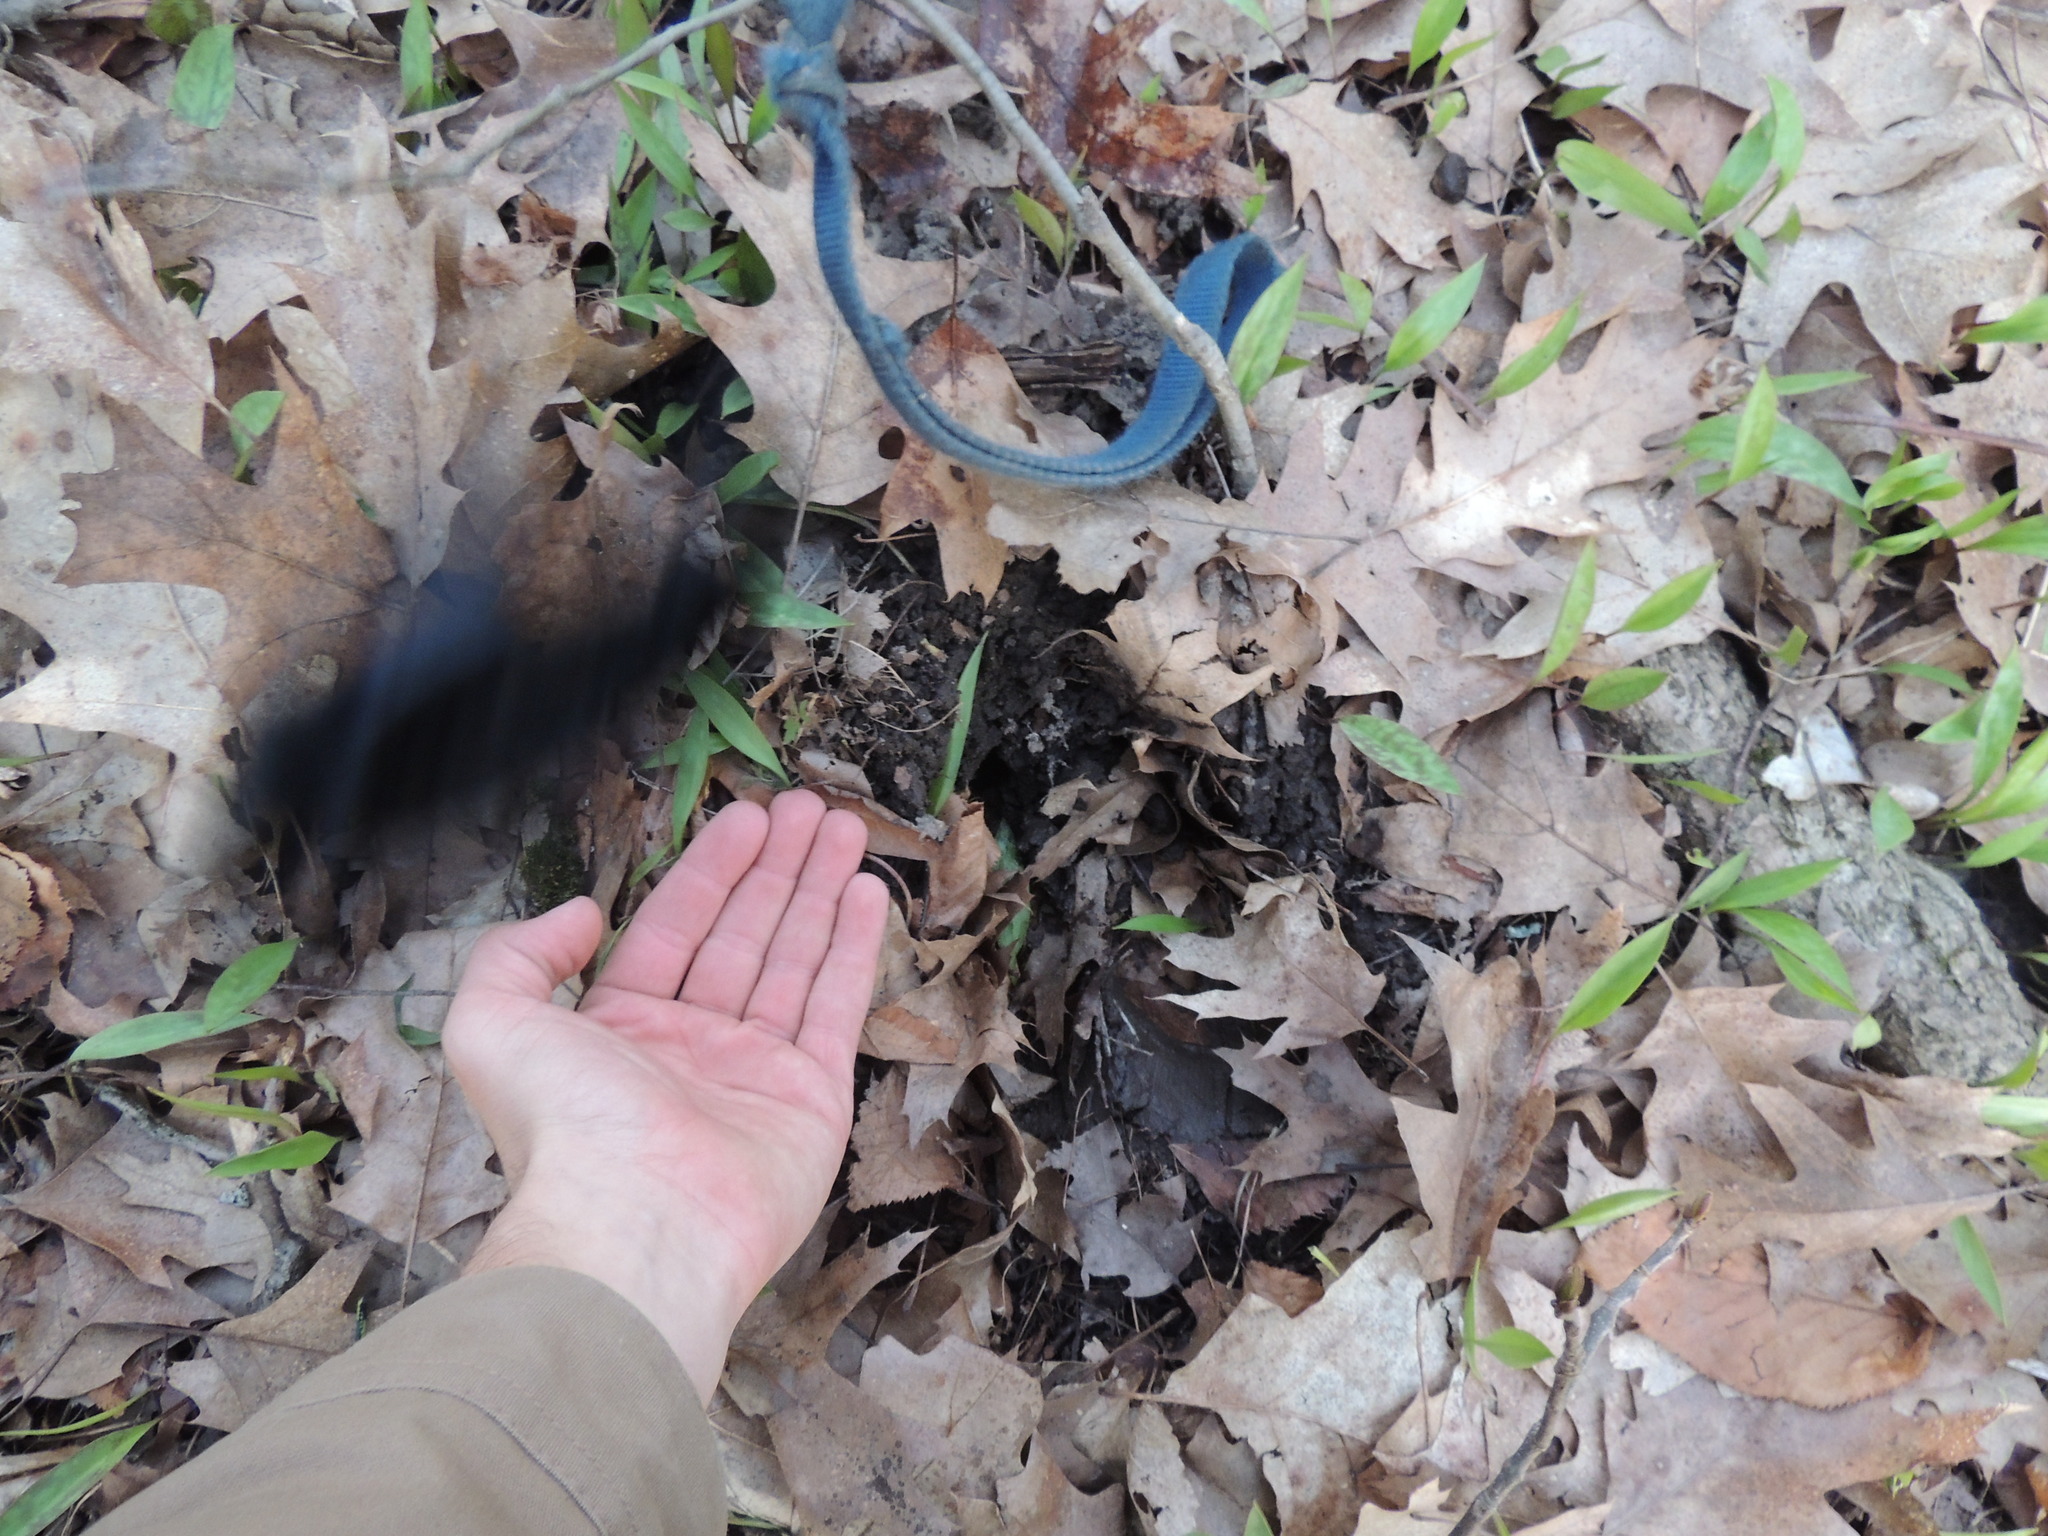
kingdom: Animalia
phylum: Chordata
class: Mammalia
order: Artiodactyla
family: Cervidae
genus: Alces
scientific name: Alces alces
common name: Moose
